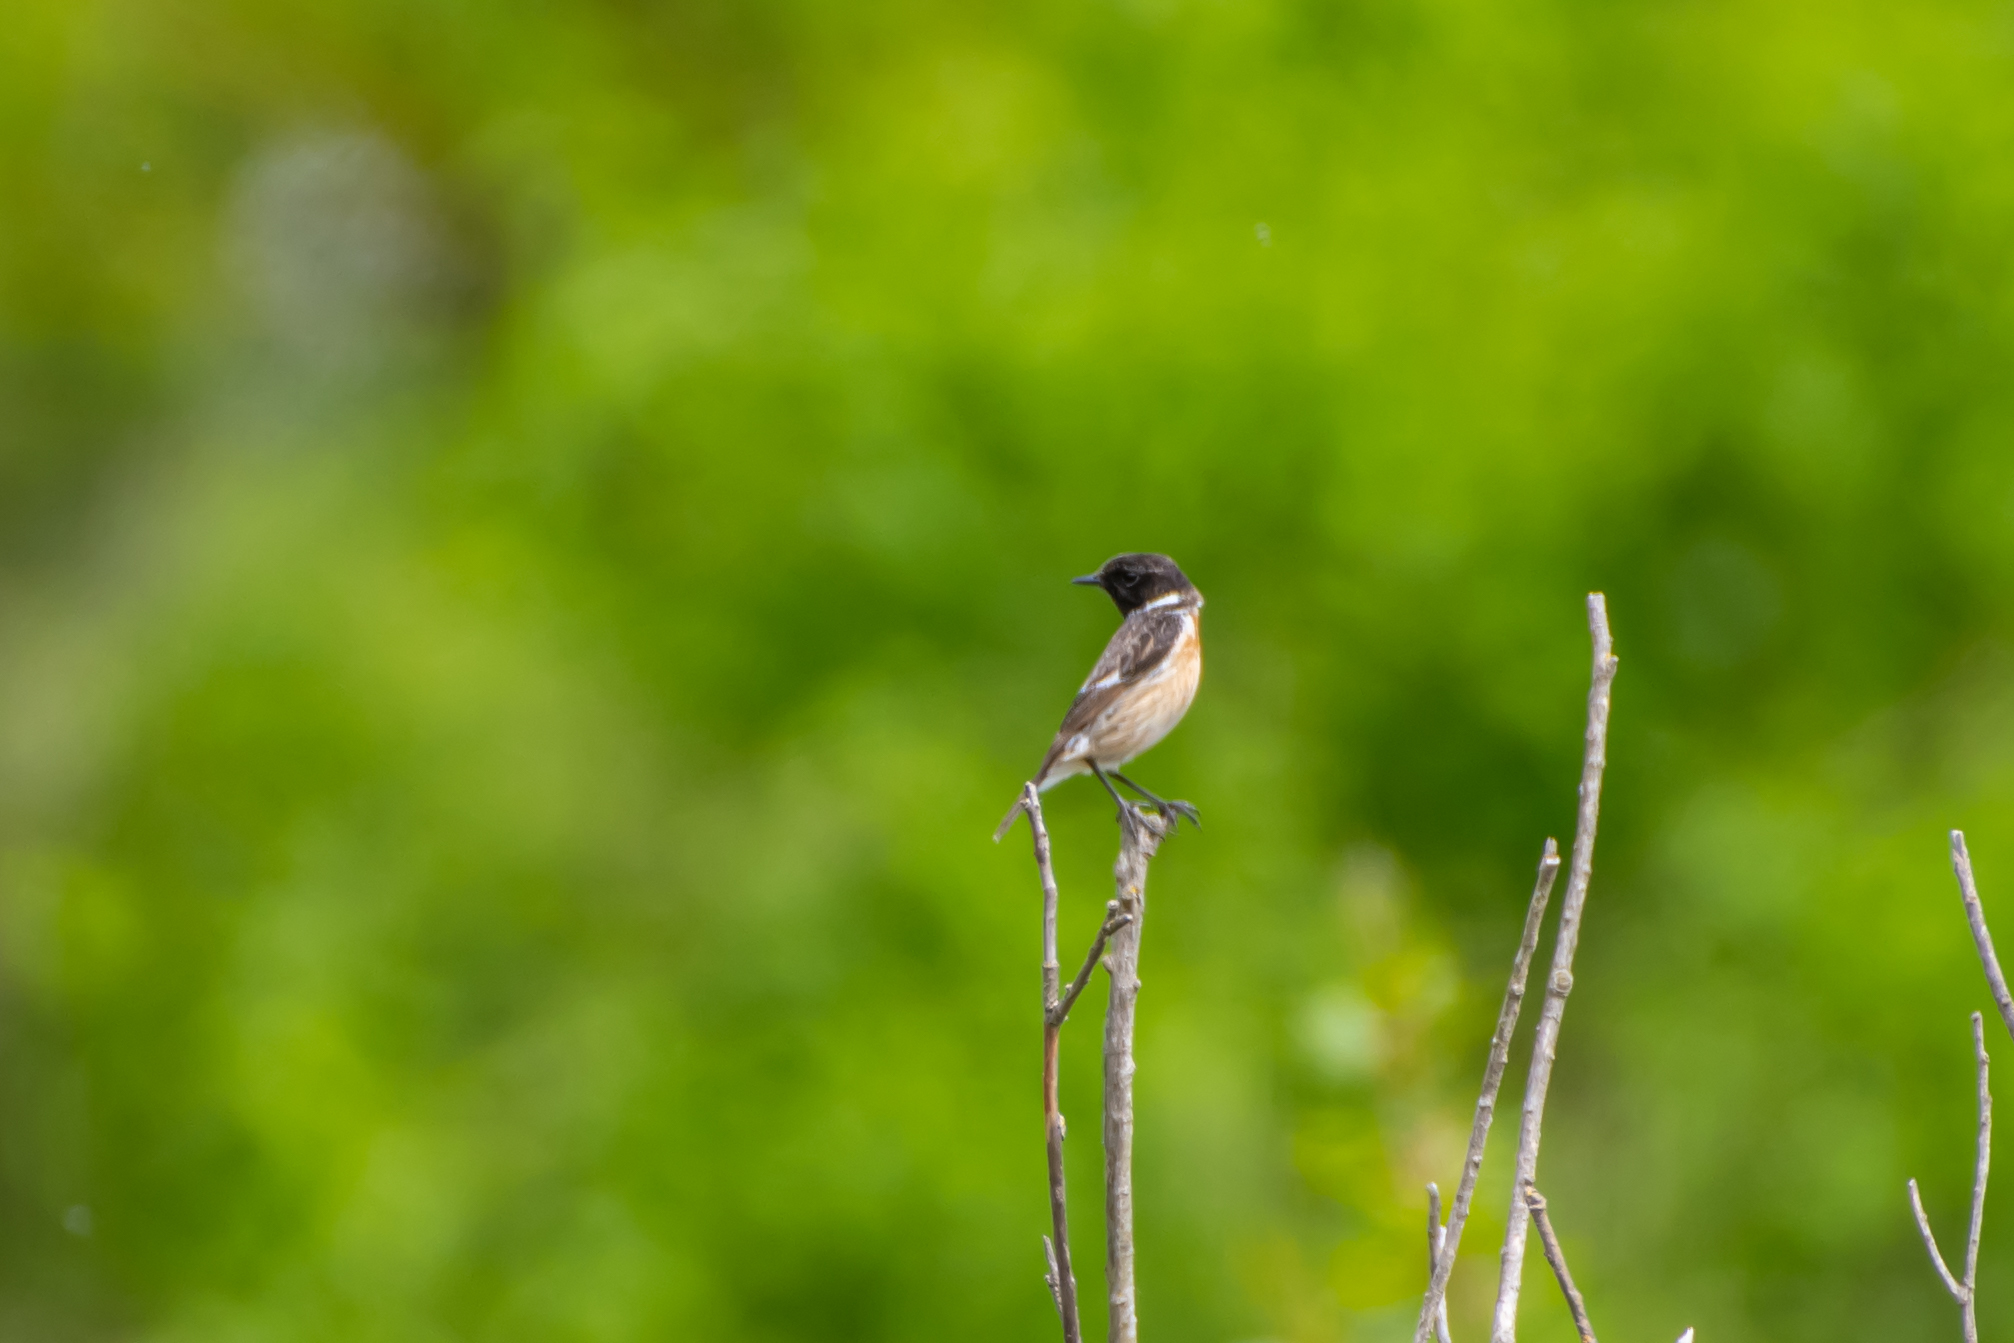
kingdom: Animalia
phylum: Chordata
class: Aves
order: Passeriformes
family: Muscicapidae
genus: Saxicola
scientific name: Saxicola rubicola
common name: European stonechat
